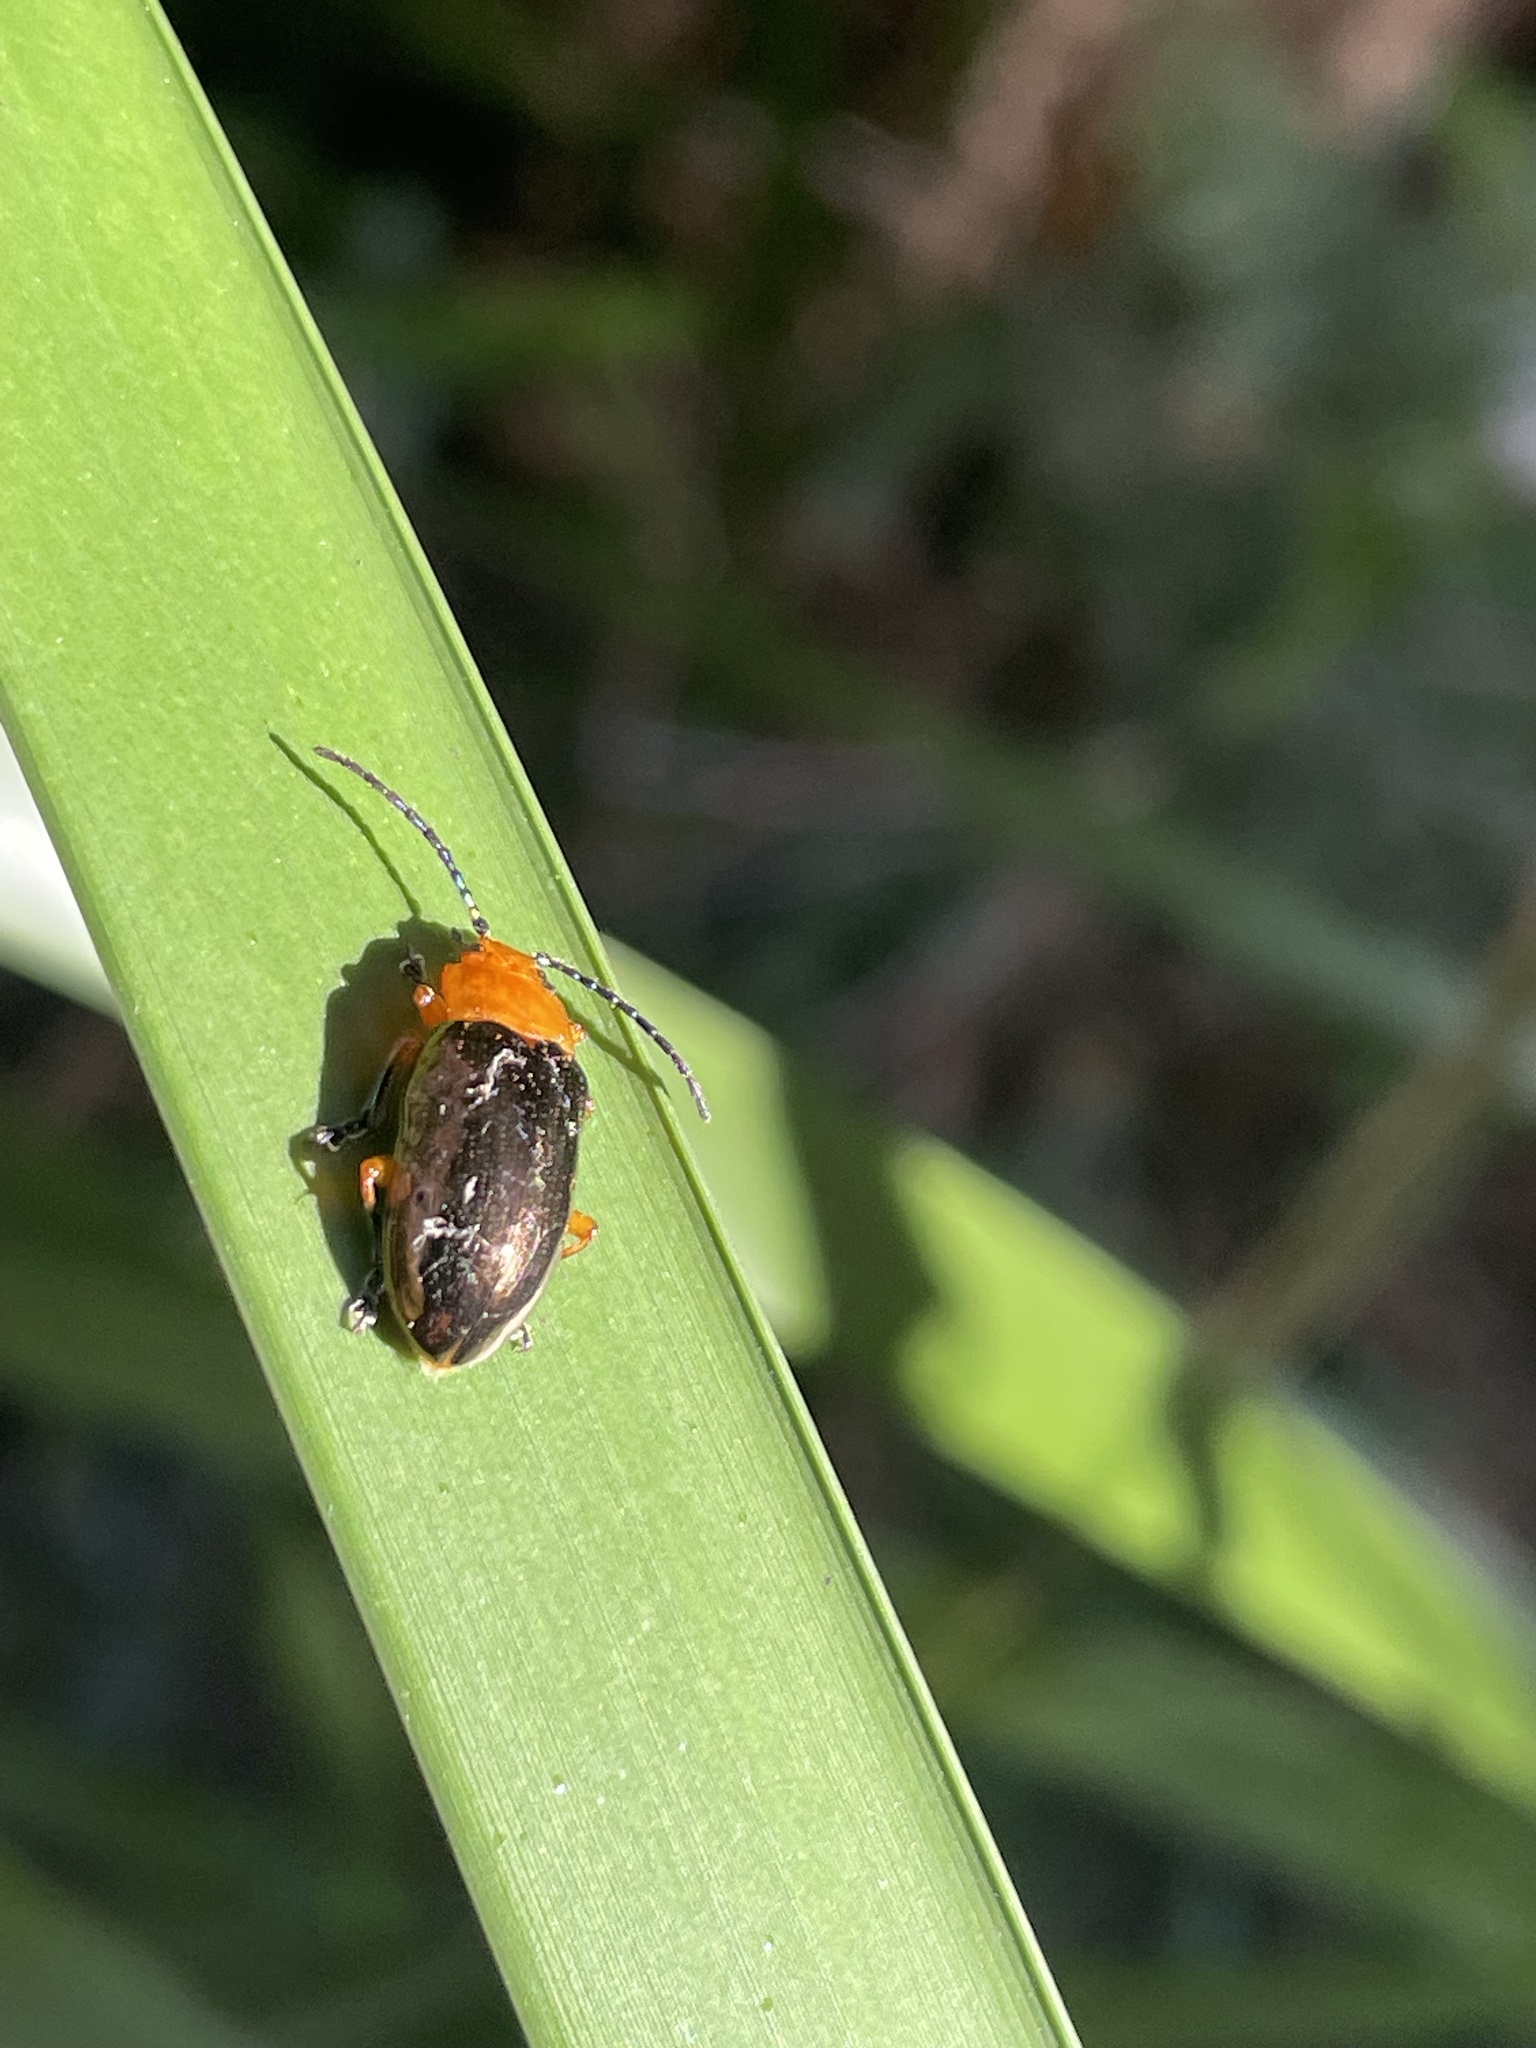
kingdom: Animalia
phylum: Arthropoda
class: Insecta
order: Coleoptera
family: Chrysomelidae
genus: Lamprolina
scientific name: Lamprolina
